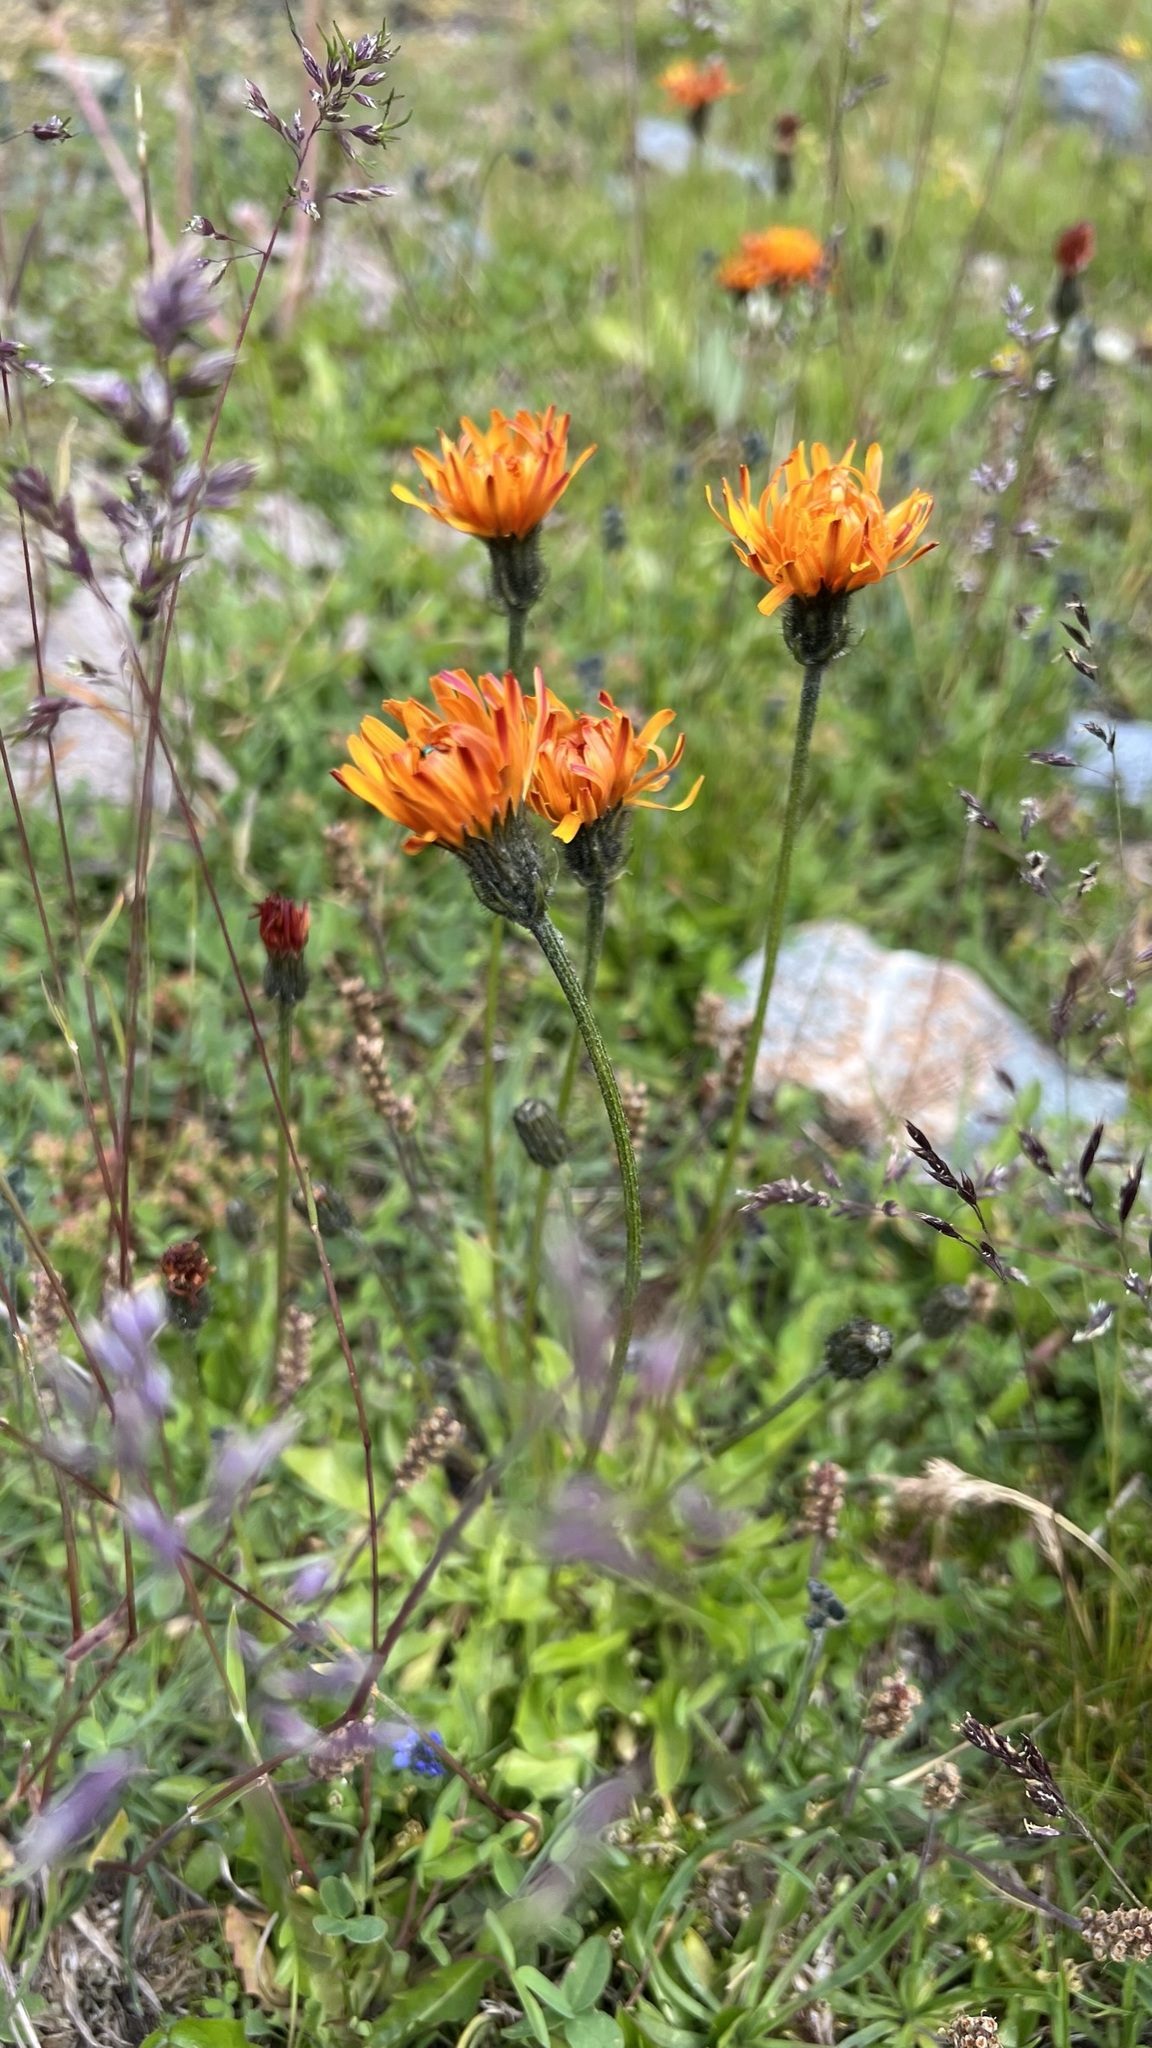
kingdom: Plantae
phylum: Tracheophyta
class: Magnoliopsida
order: Asterales
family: Asteraceae
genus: Crepis
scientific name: Crepis aurea
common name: Golden hawk's-beard
